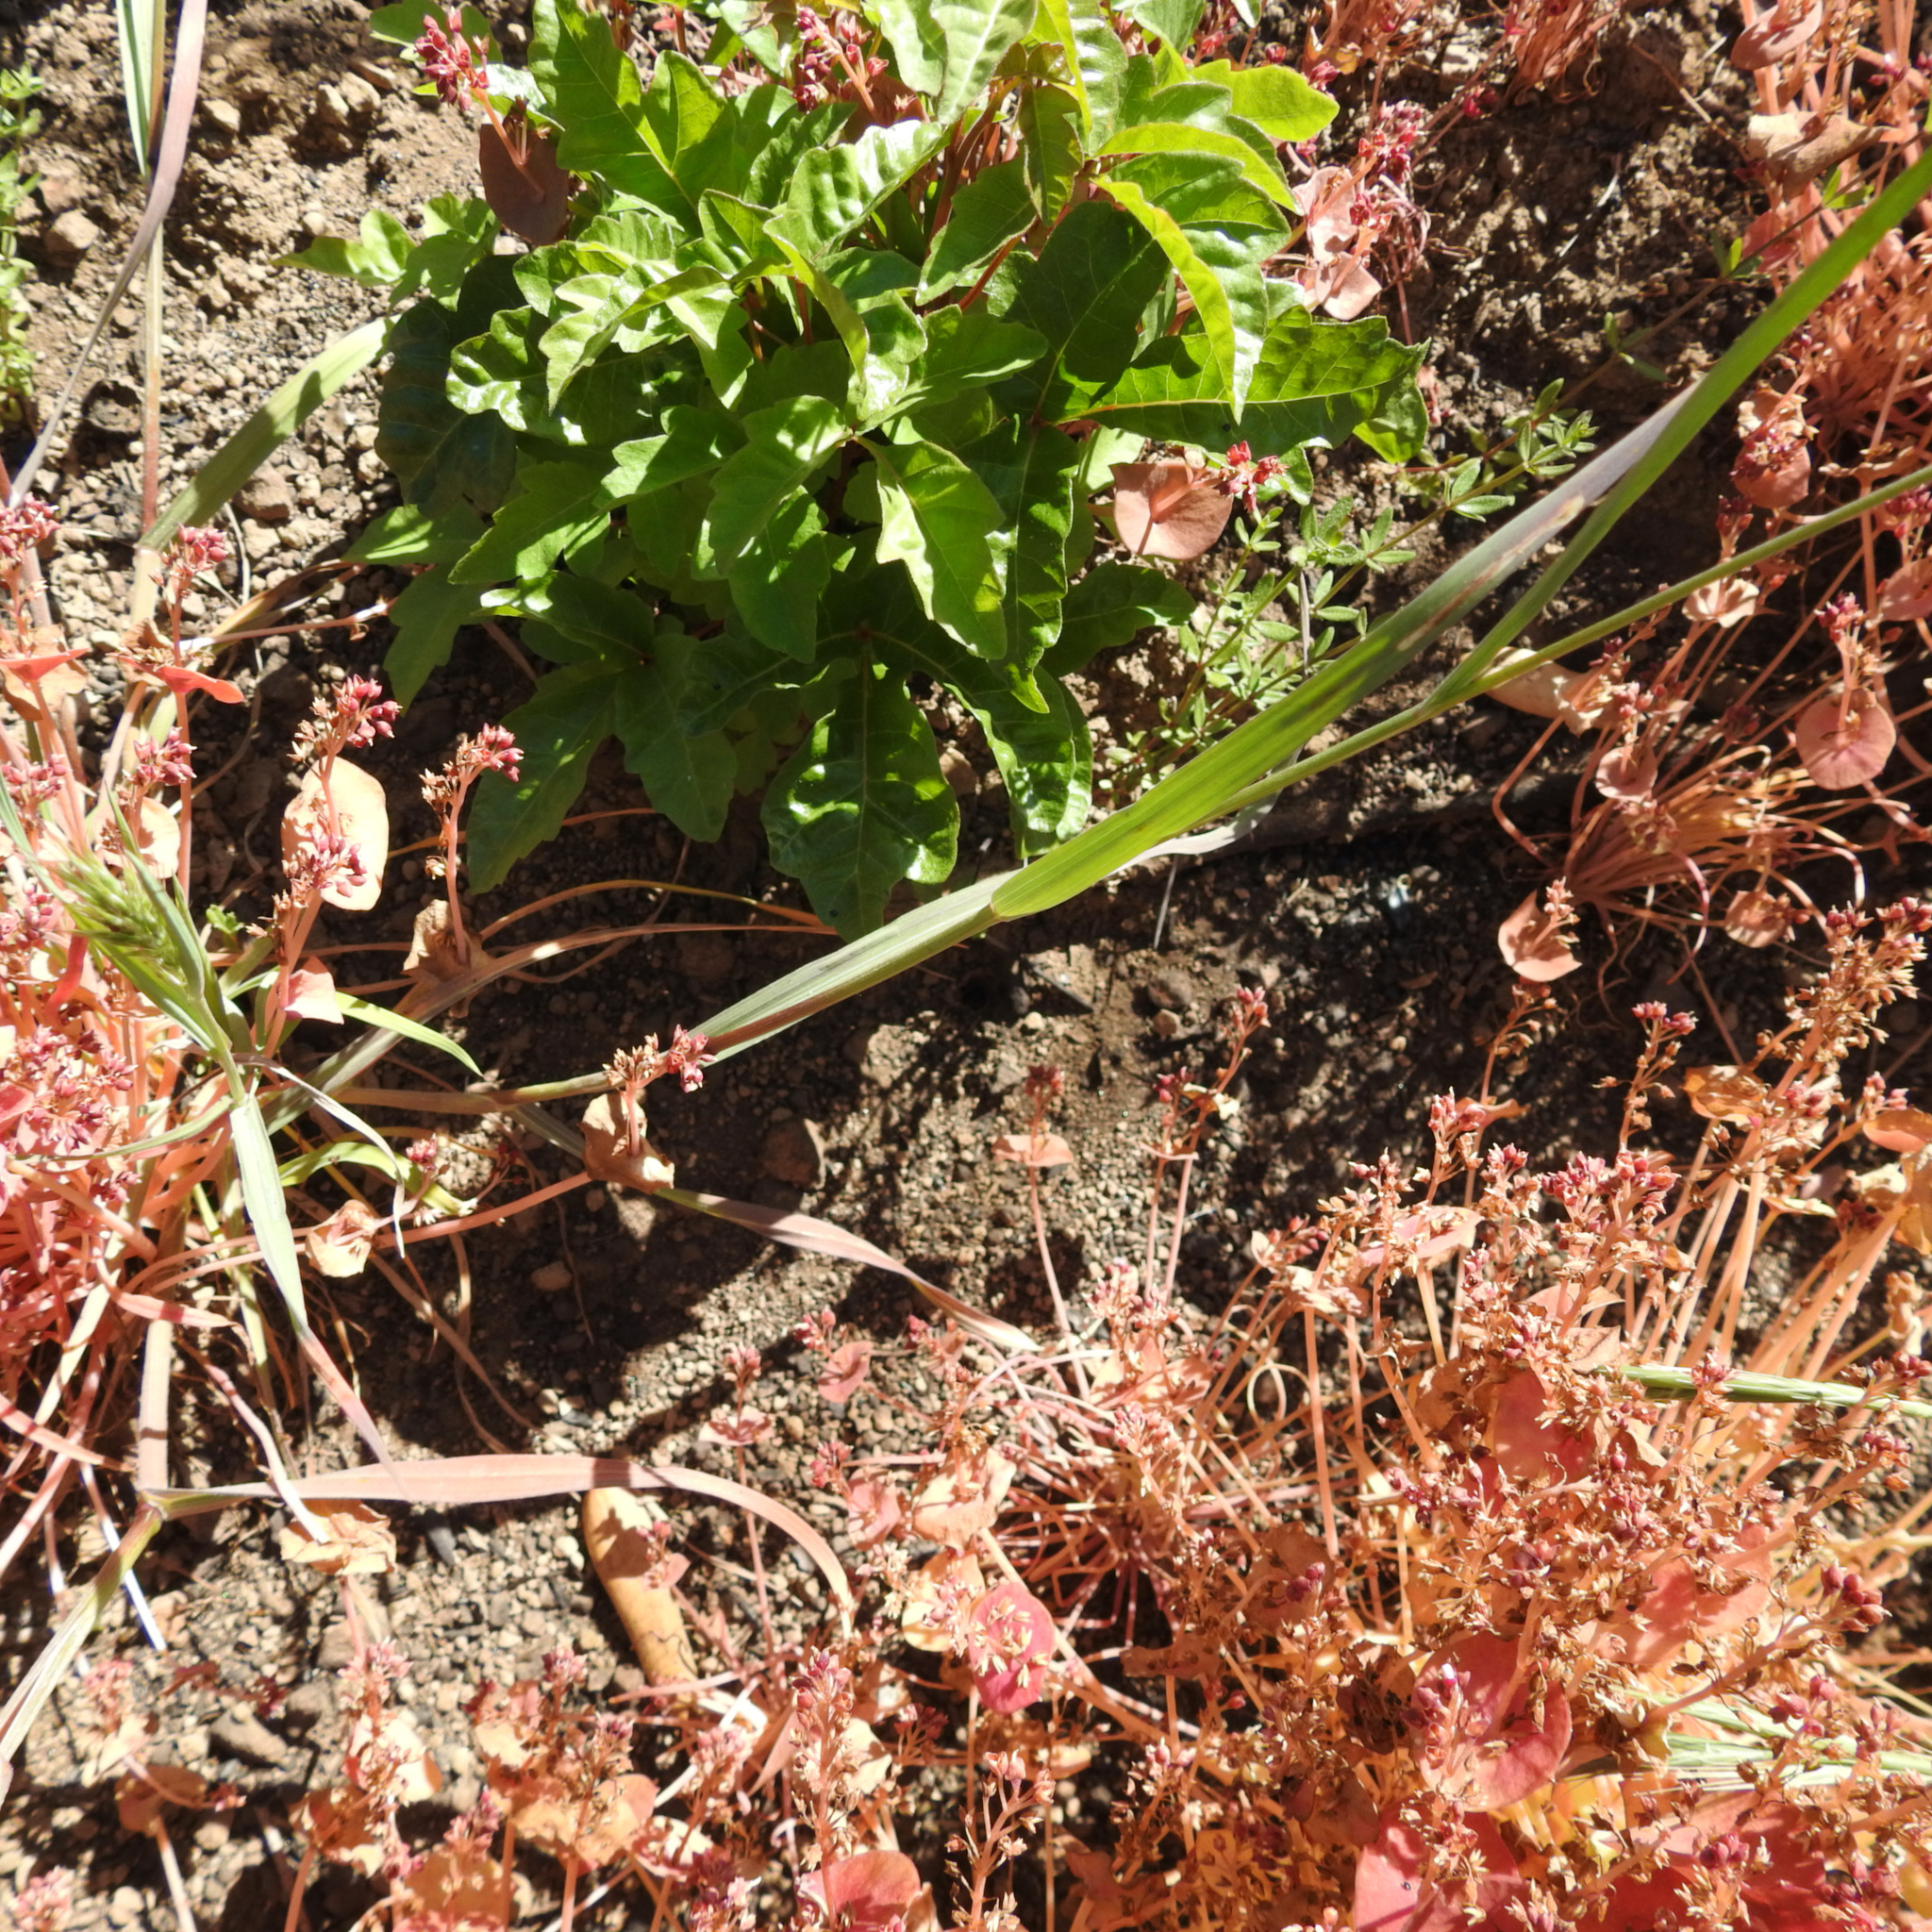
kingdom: Plantae
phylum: Tracheophyta
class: Liliopsida
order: Poales
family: Poaceae
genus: Bromus
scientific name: Bromus madritensis
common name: Compact brome
